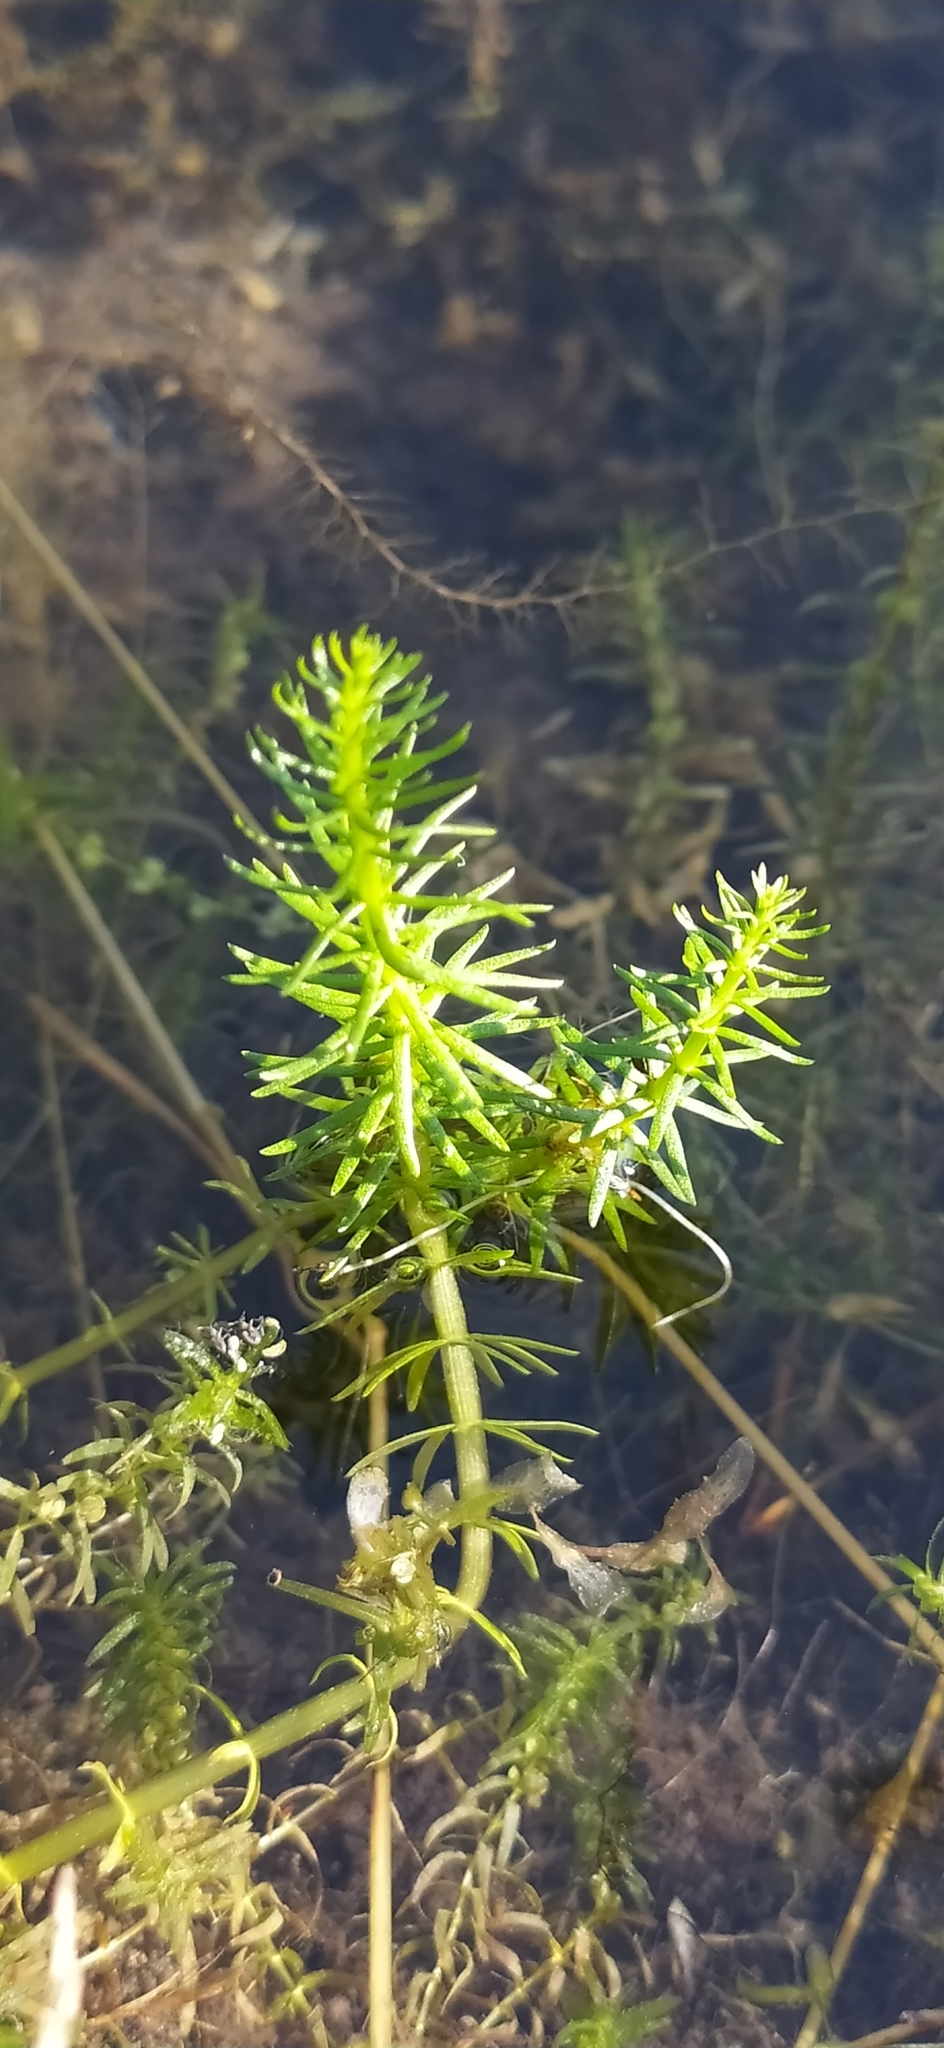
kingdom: Plantae
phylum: Tracheophyta
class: Magnoliopsida
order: Lamiales
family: Plantaginaceae
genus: Hippuris
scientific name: Hippuris vulgaris
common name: Mare's-tail
